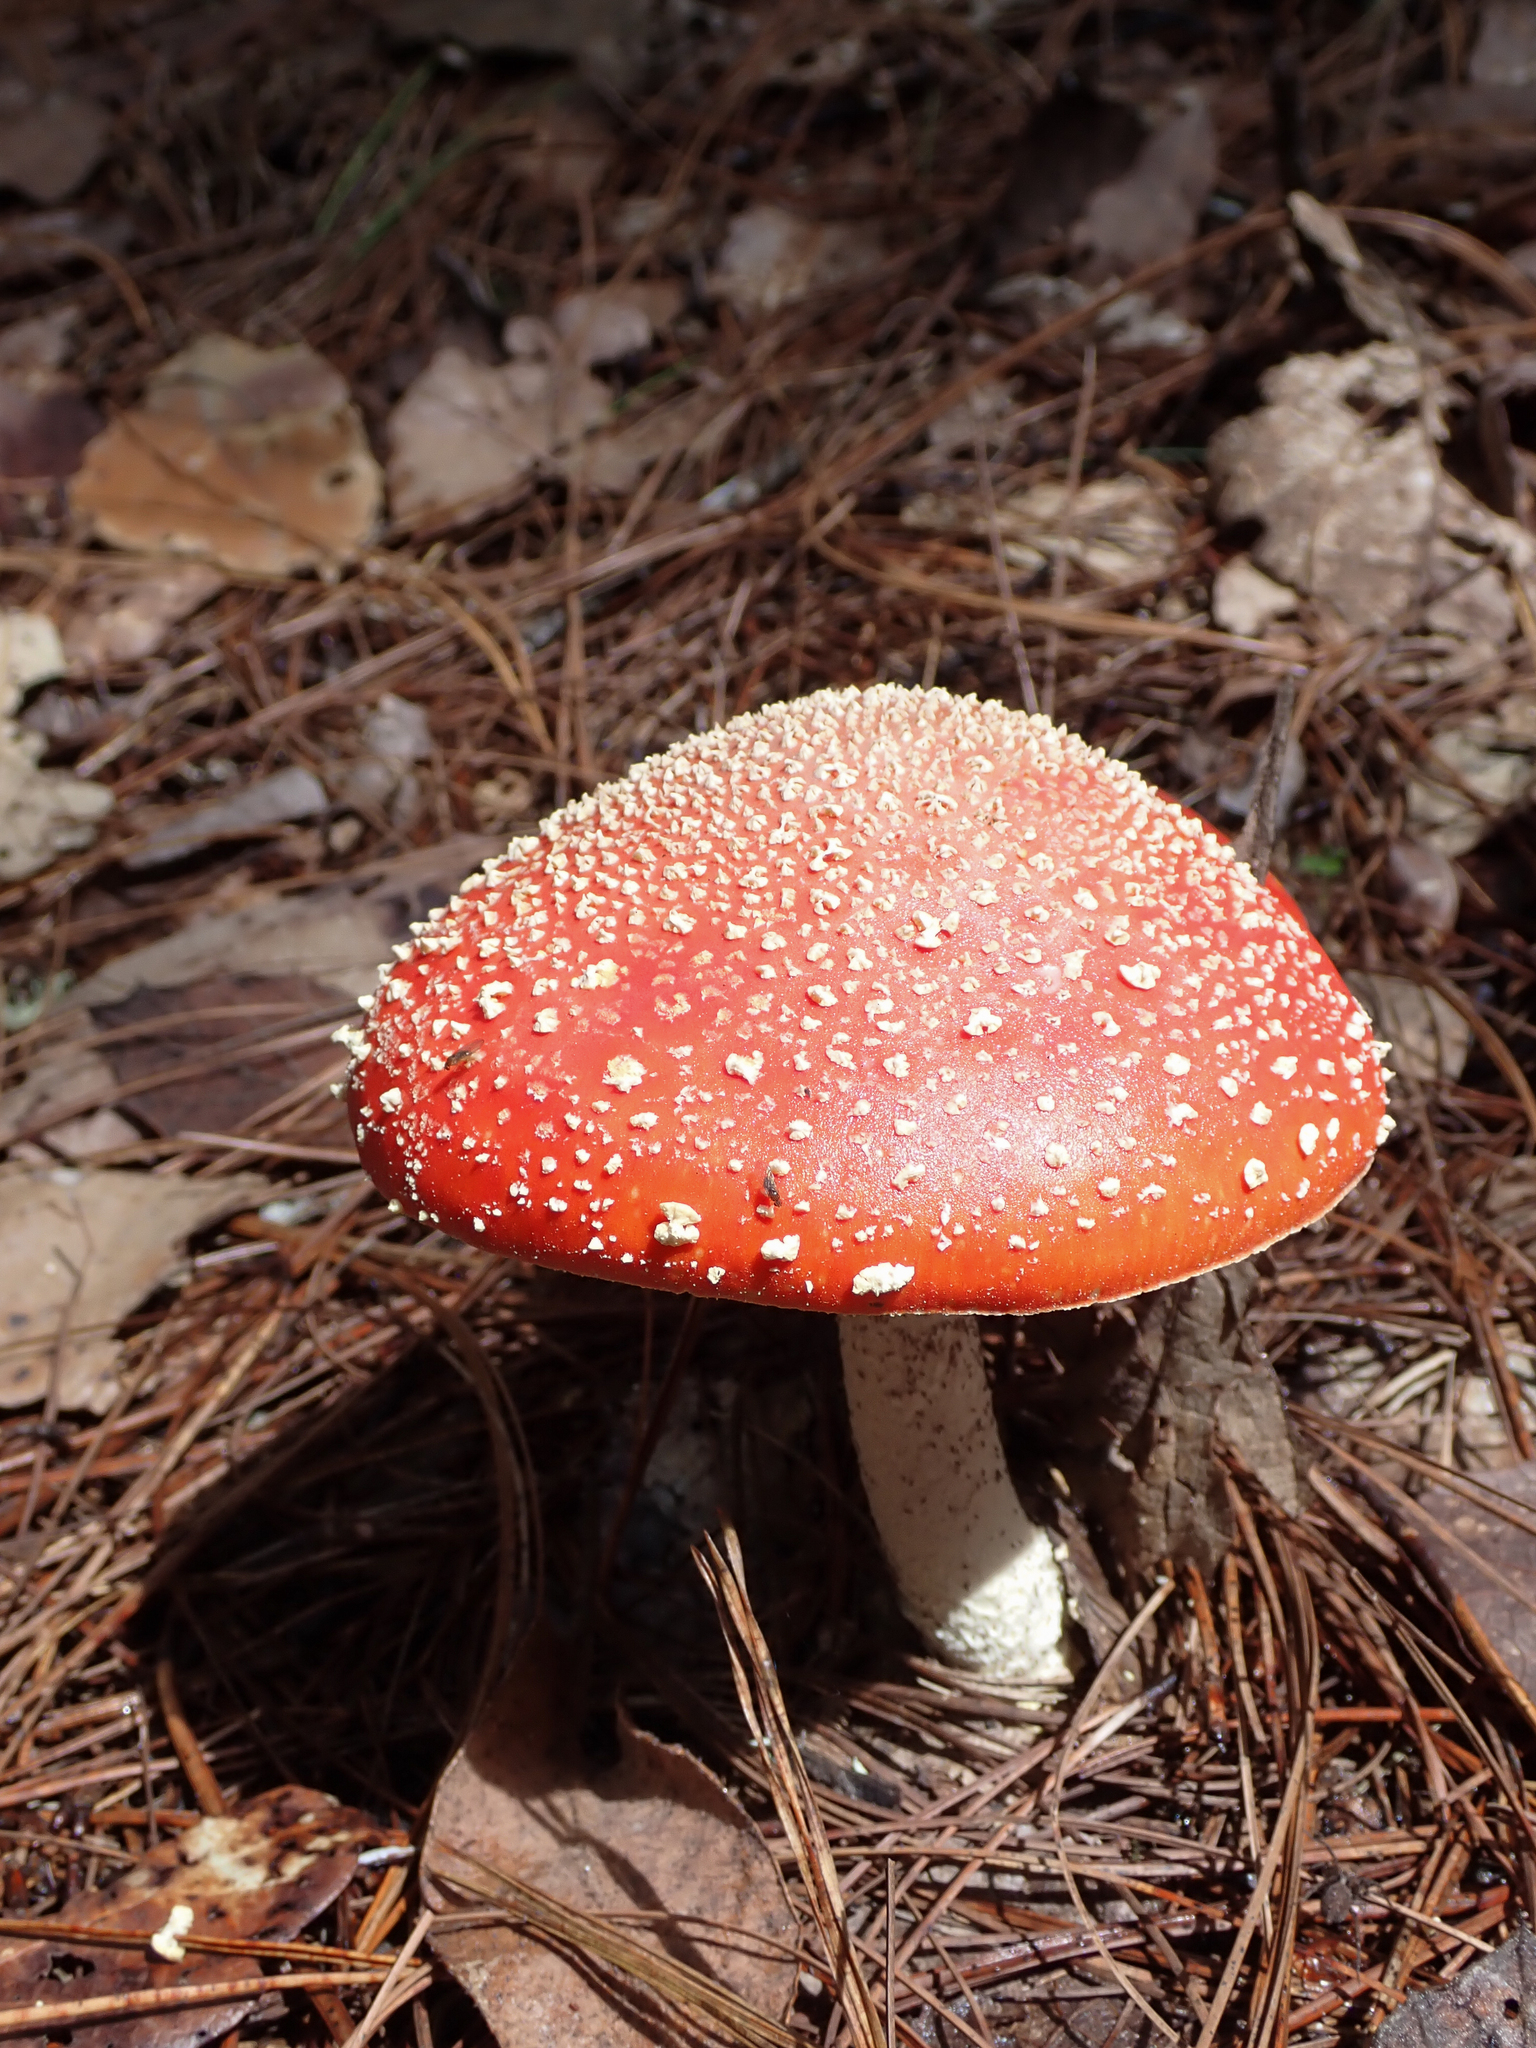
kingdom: Fungi
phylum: Basidiomycota
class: Agaricomycetes
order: Agaricales
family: Amanitaceae
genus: Amanita
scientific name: Amanita muscaria
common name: Fly agaric
